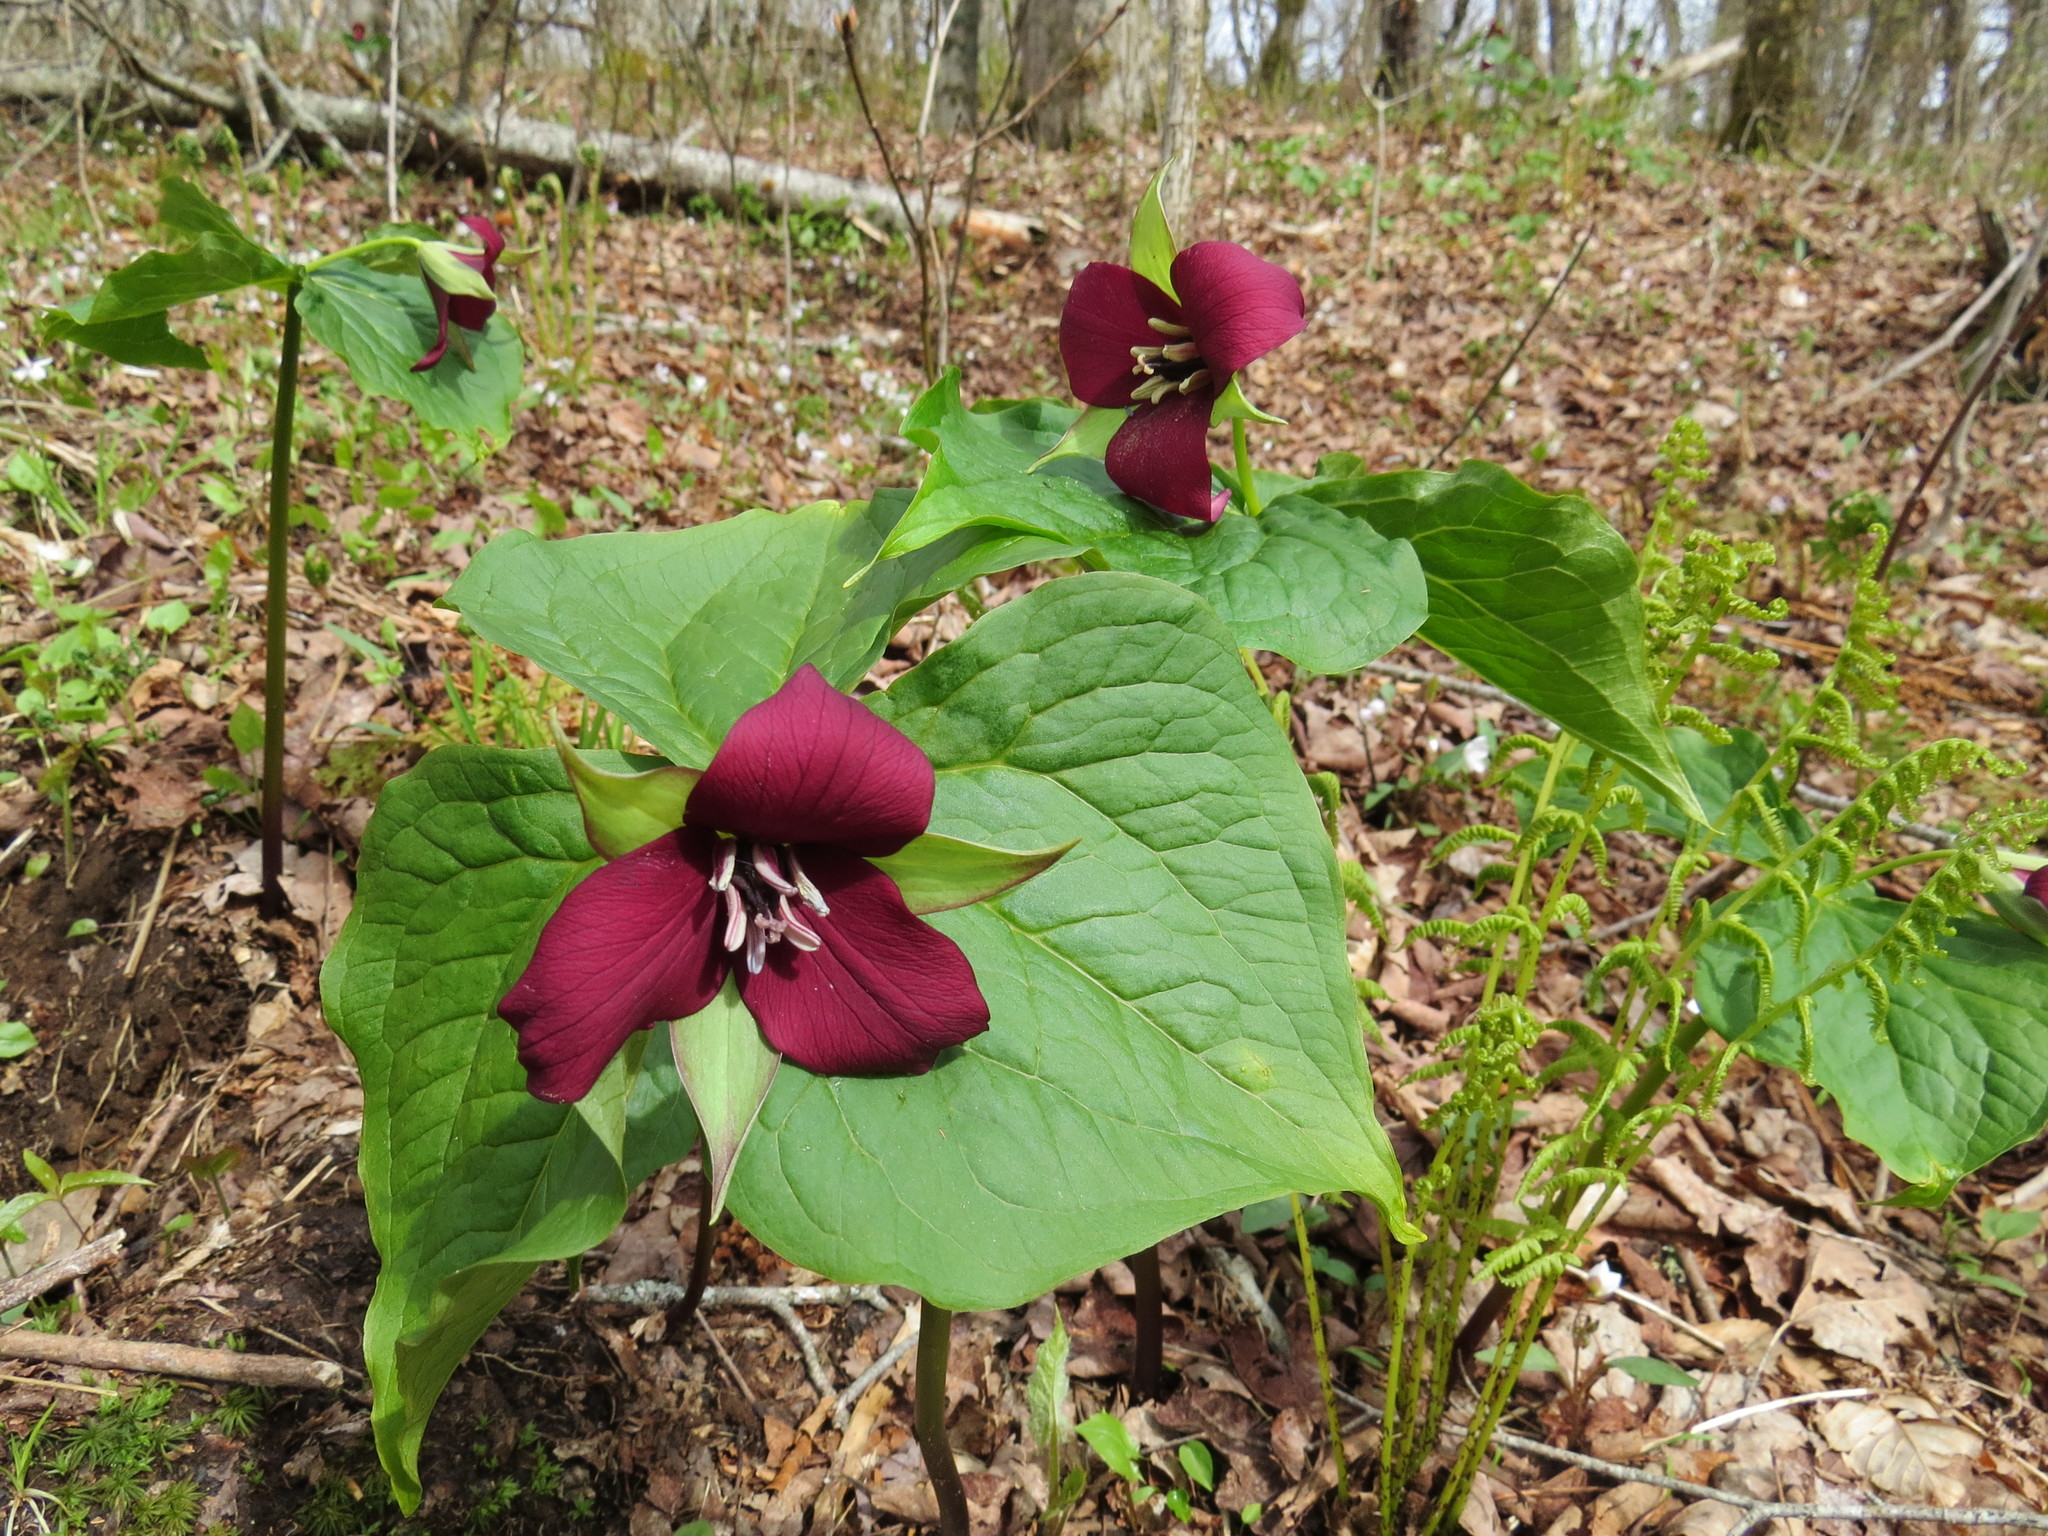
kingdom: Plantae
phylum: Tracheophyta
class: Liliopsida
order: Liliales
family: Melanthiaceae
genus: Trillium
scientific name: Trillium erectum
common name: Purple trillium
